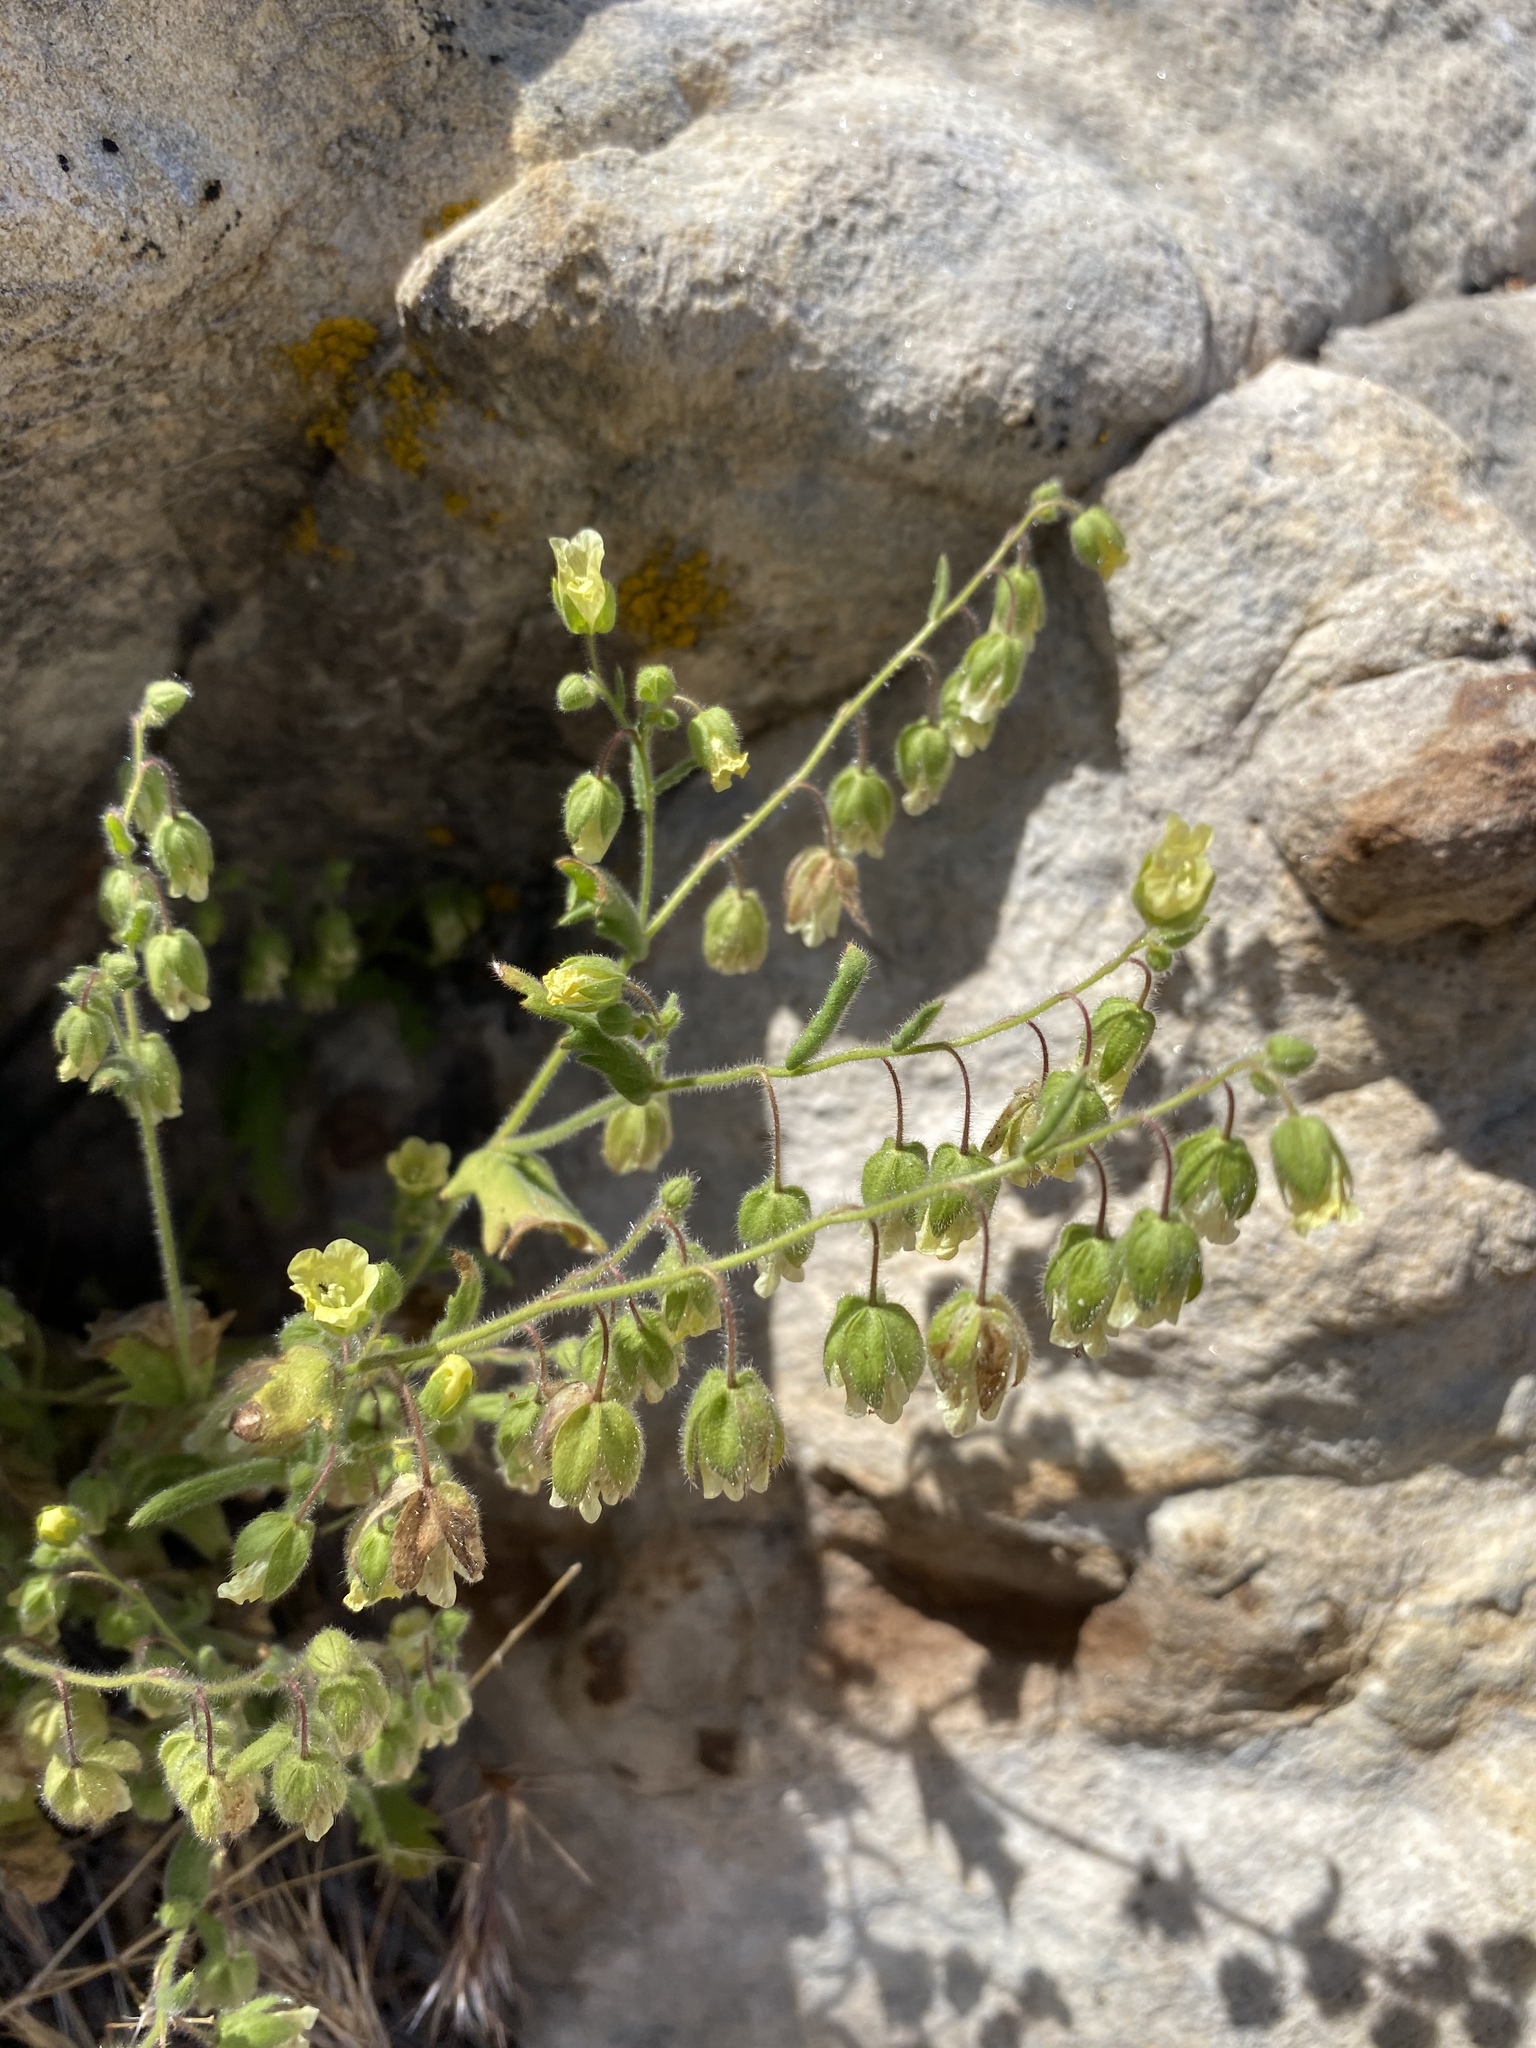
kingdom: Plantae
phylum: Tracheophyta
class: Magnoliopsida
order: Boraginales
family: Hydrophyllaceae
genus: Emmenanthe
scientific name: Emmenanthe penduliflora
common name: Whispering-bells
